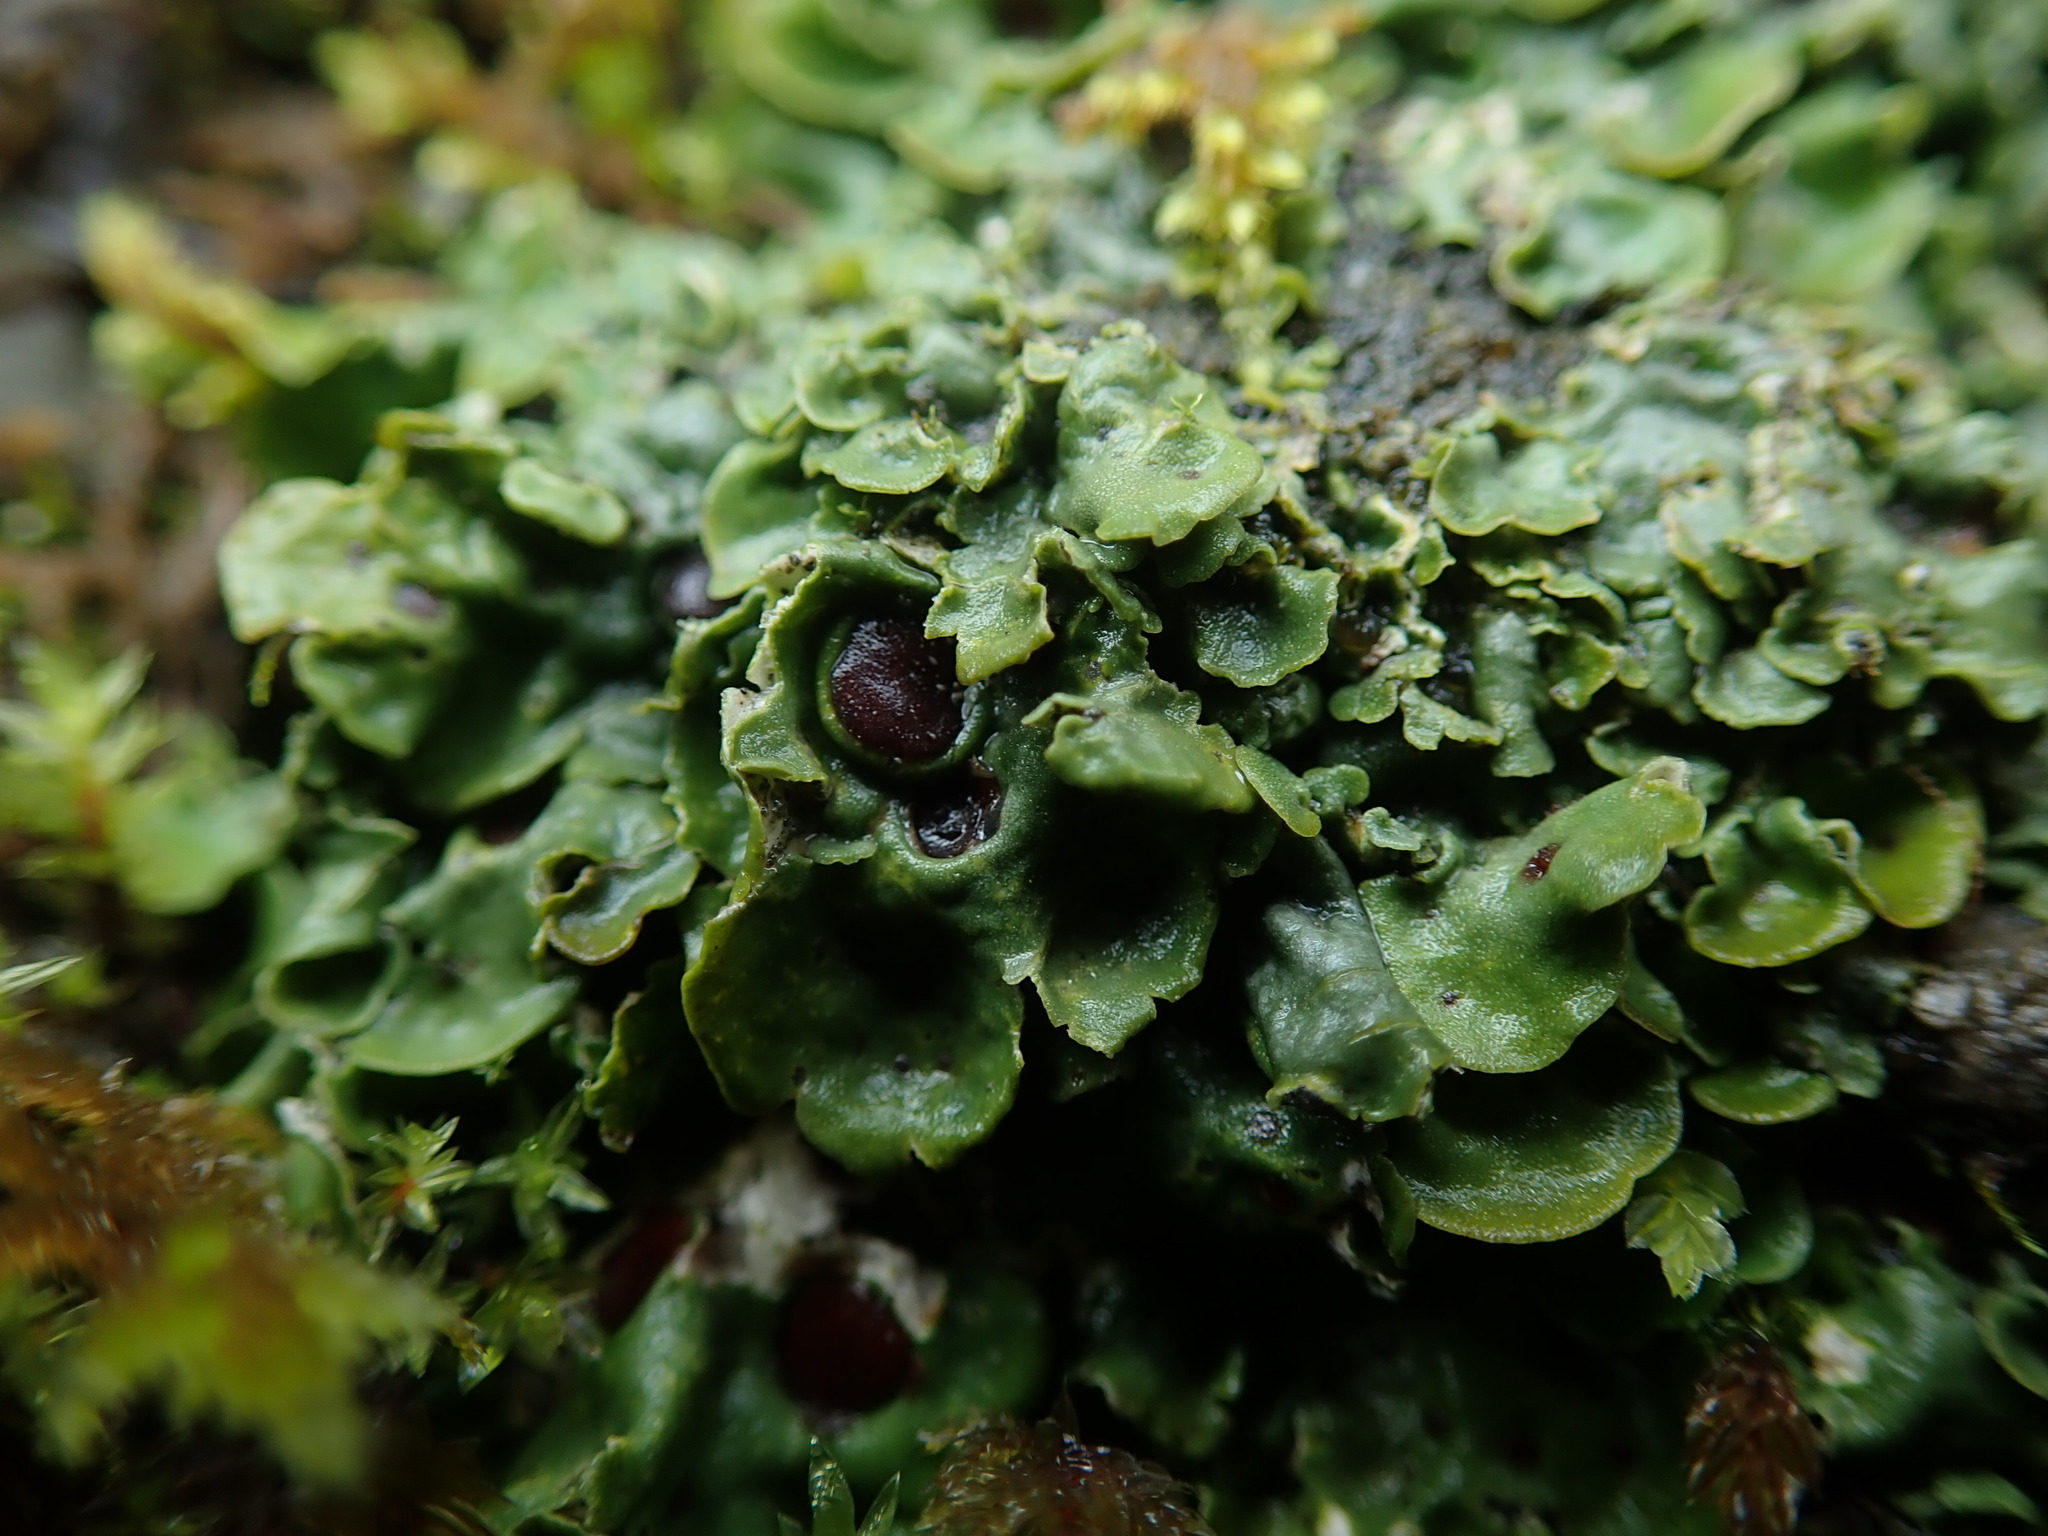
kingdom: Fungi
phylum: Ascomycota
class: Lecanoromycetes
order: Peltigerales
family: Peltigeraceae
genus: Solorina
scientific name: Solorina saccata
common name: Common chocolate chip lichen
